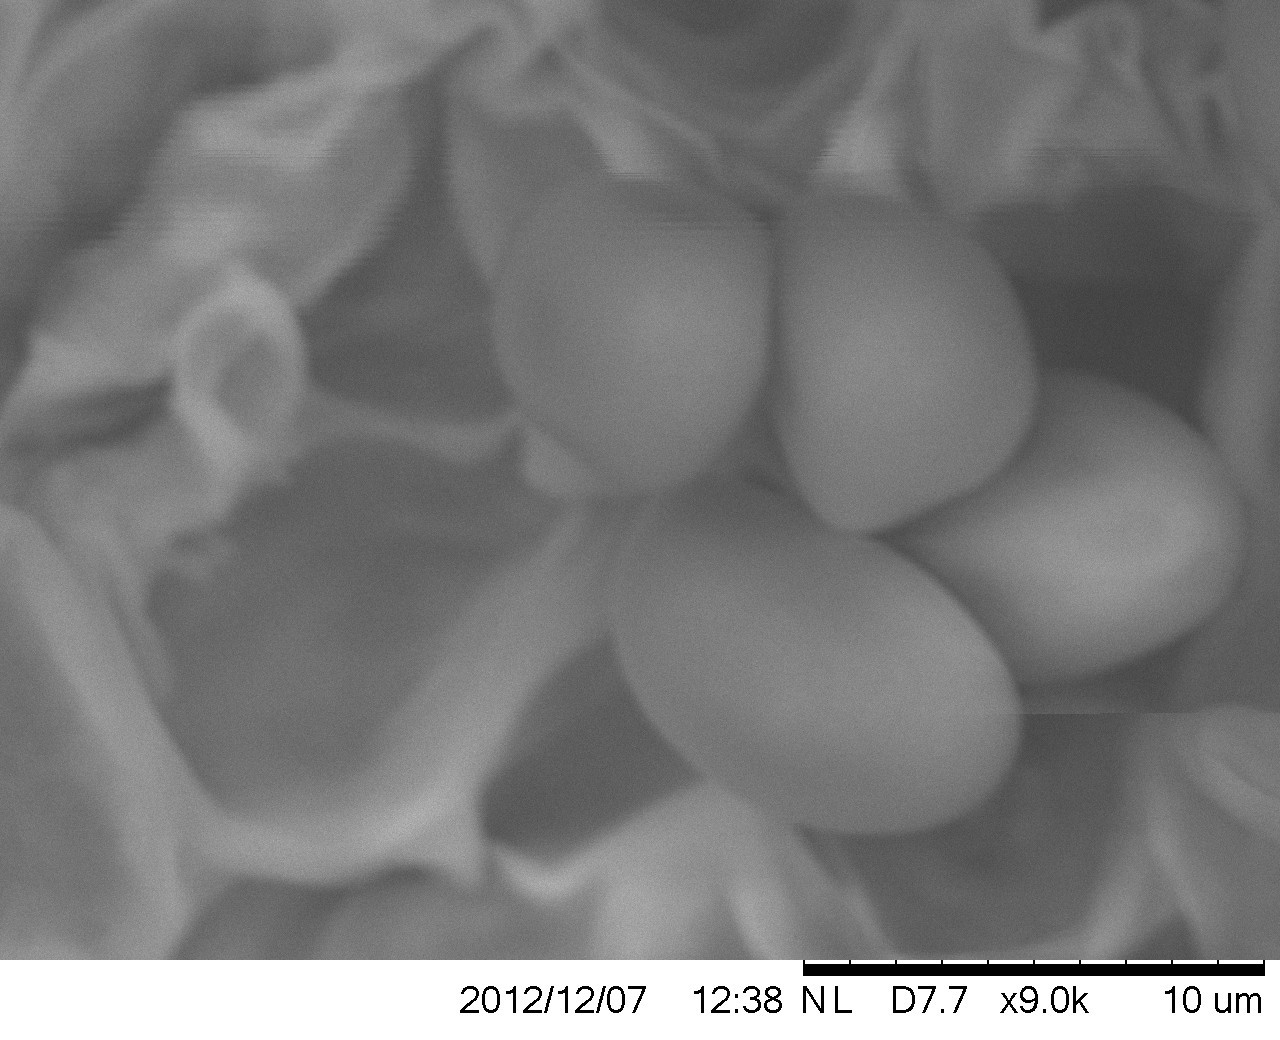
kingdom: Fungi
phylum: Basidiomycota
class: Agaricomycetes
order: Agaricales
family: Pluteaceae
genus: Volvopluteus
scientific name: Volvopluteus gloiocephalus
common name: Stubble rosegill
